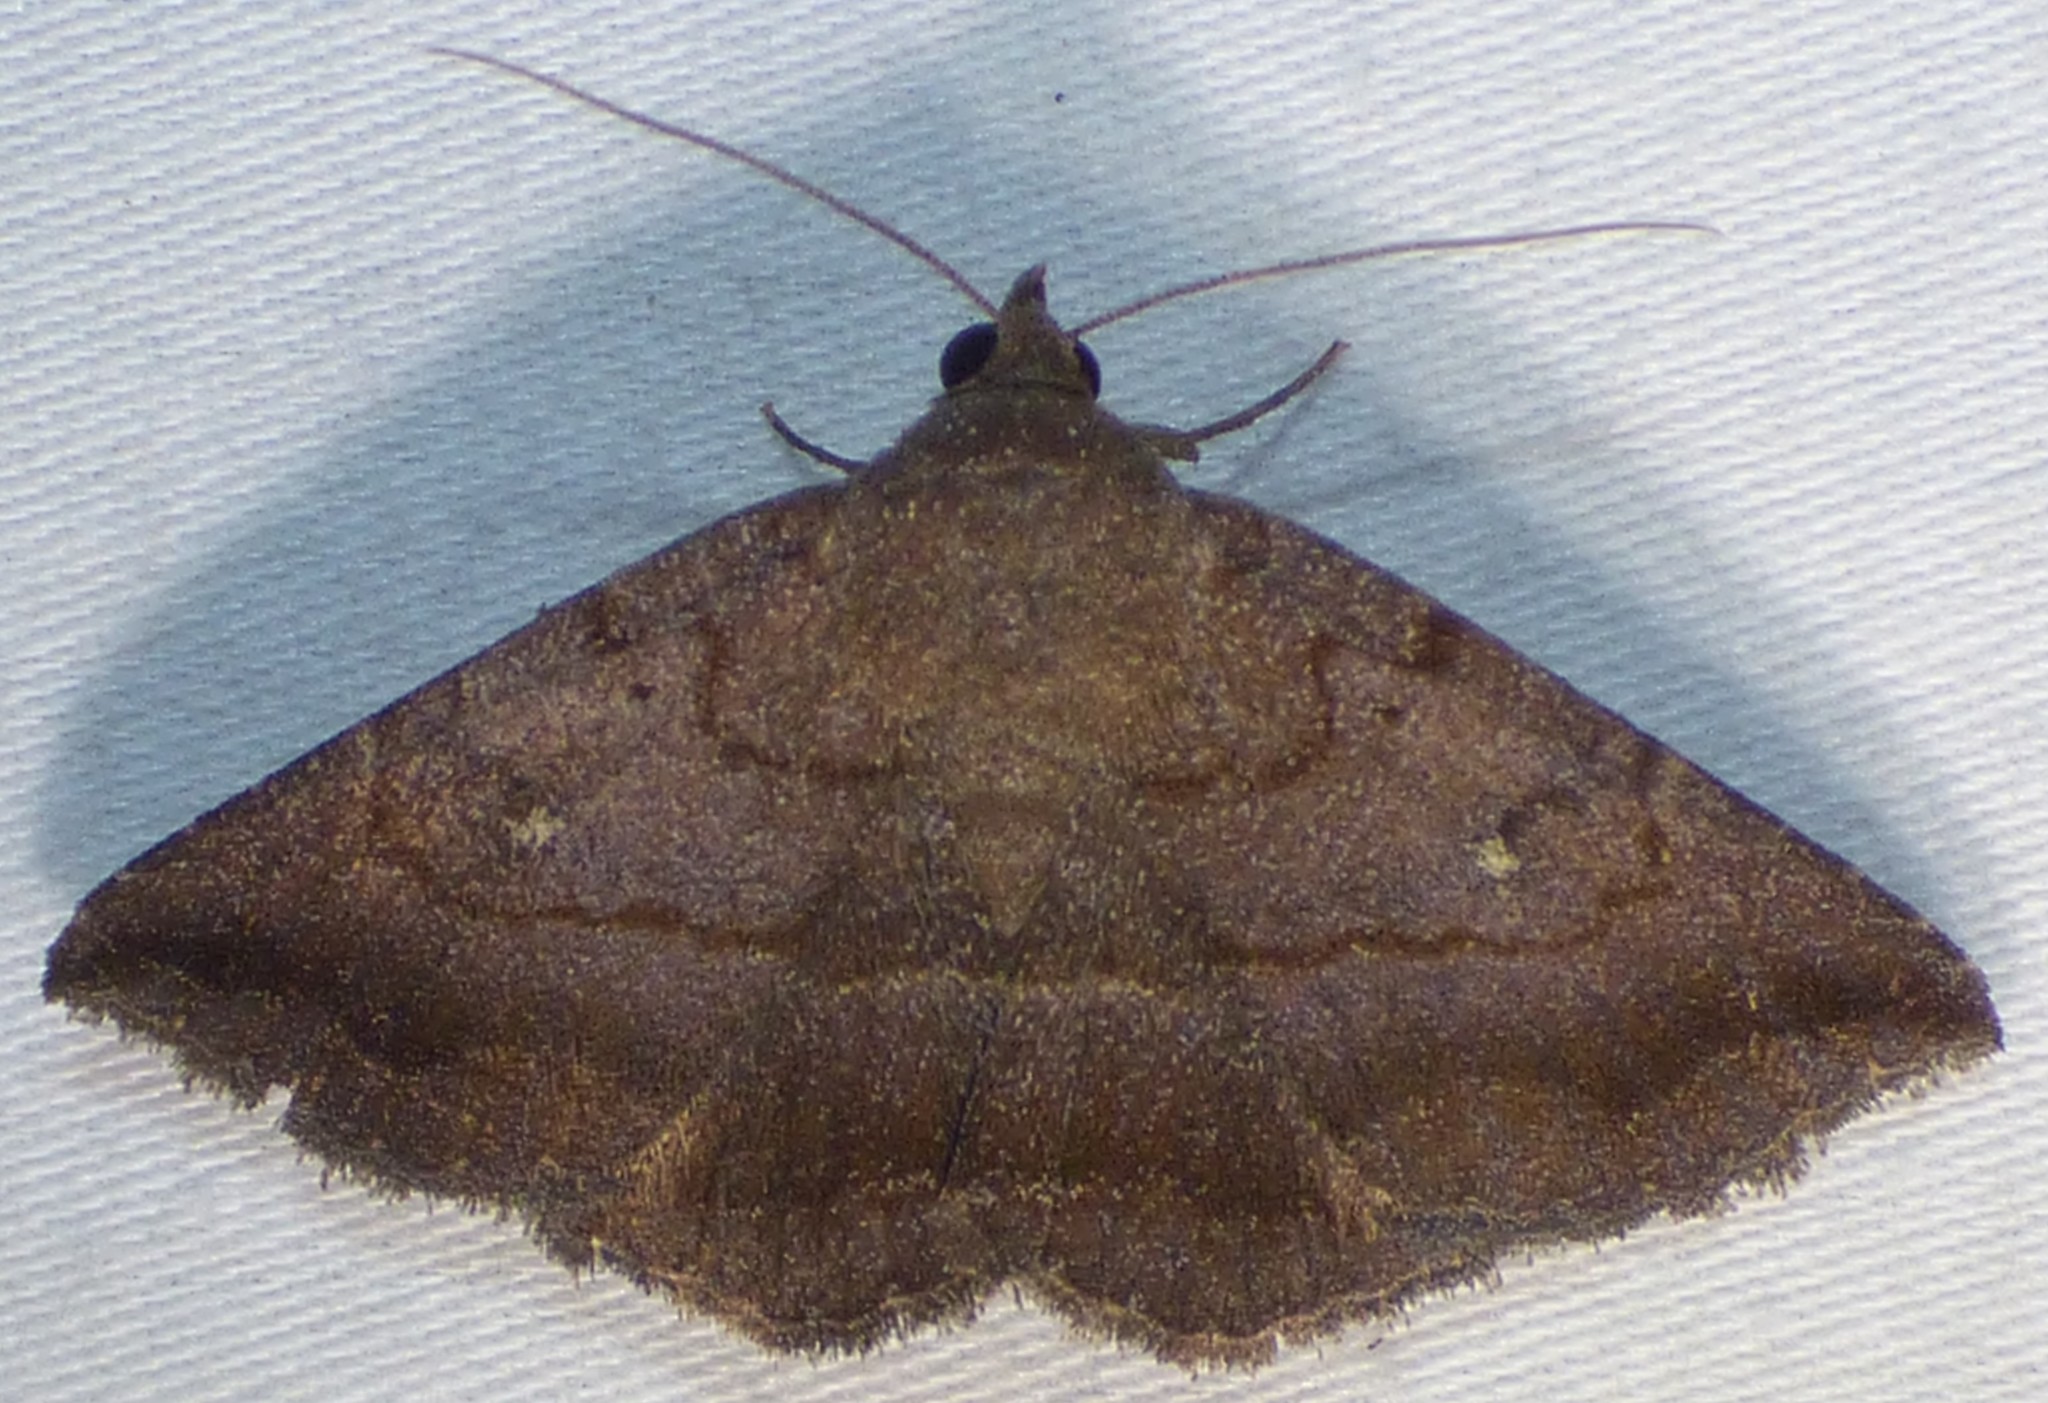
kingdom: Animalia
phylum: Arthropoda
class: Insecta
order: Lepidoptera
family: Erebidae
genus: Lesmone
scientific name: Lesmone detrahens
